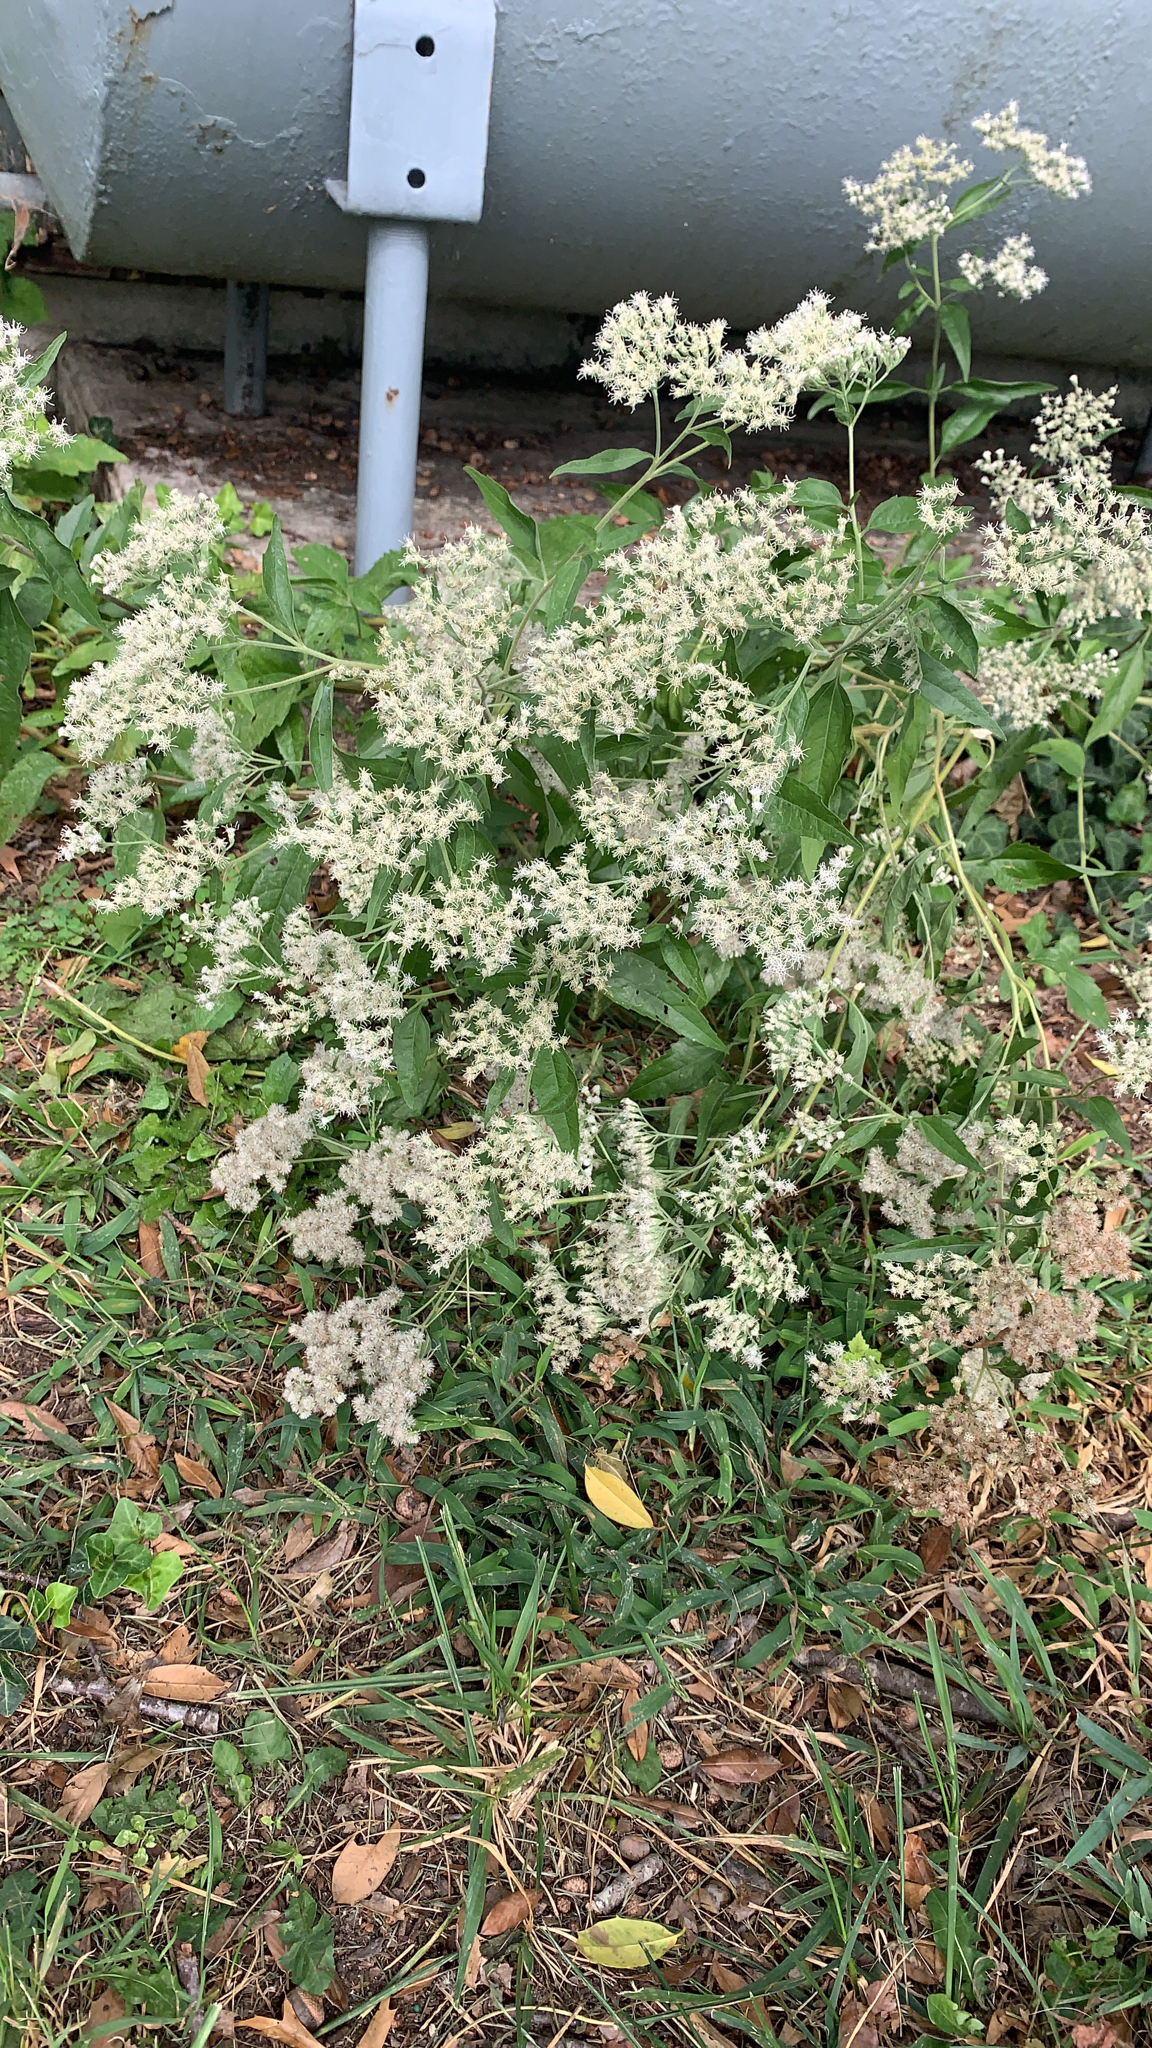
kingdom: Plantae
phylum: Tracheophyta
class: Magnoliopsida
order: Asterales
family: Asteraceae
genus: Eupatorium
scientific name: Eupatorium serotinum
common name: Late boneset
